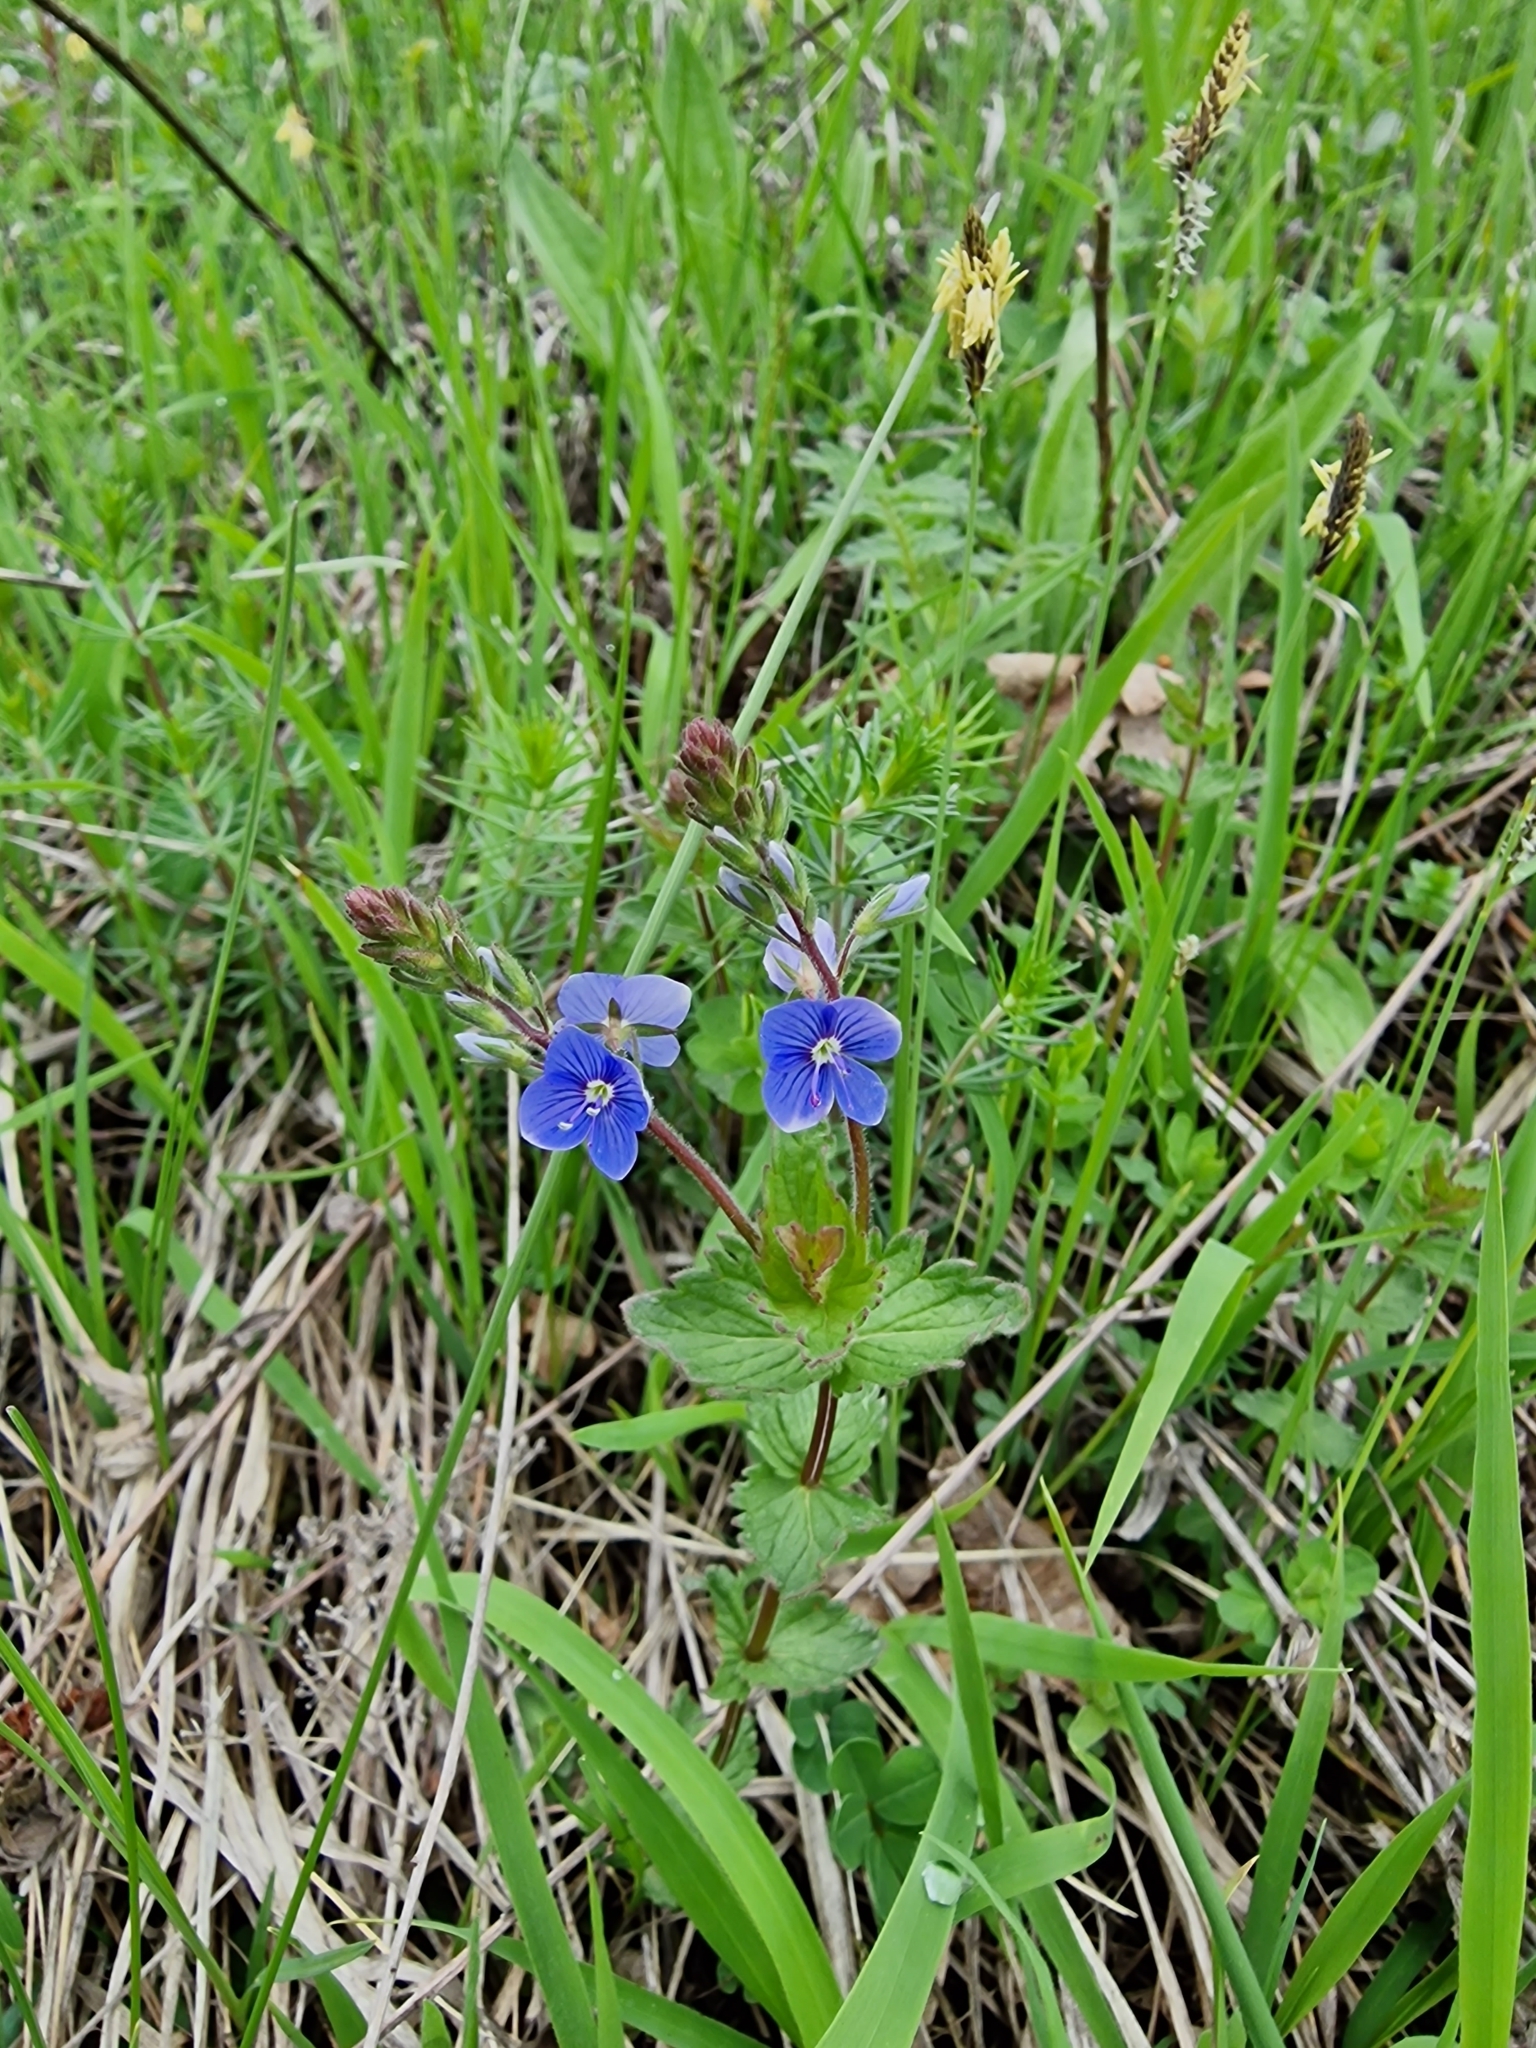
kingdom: Plantae
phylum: Tracheophyta
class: Magnoliopsida
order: Lamiales
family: Plantaginaceae
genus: Veronica
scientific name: Veronica chamaedrys
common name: Germander speedwell
